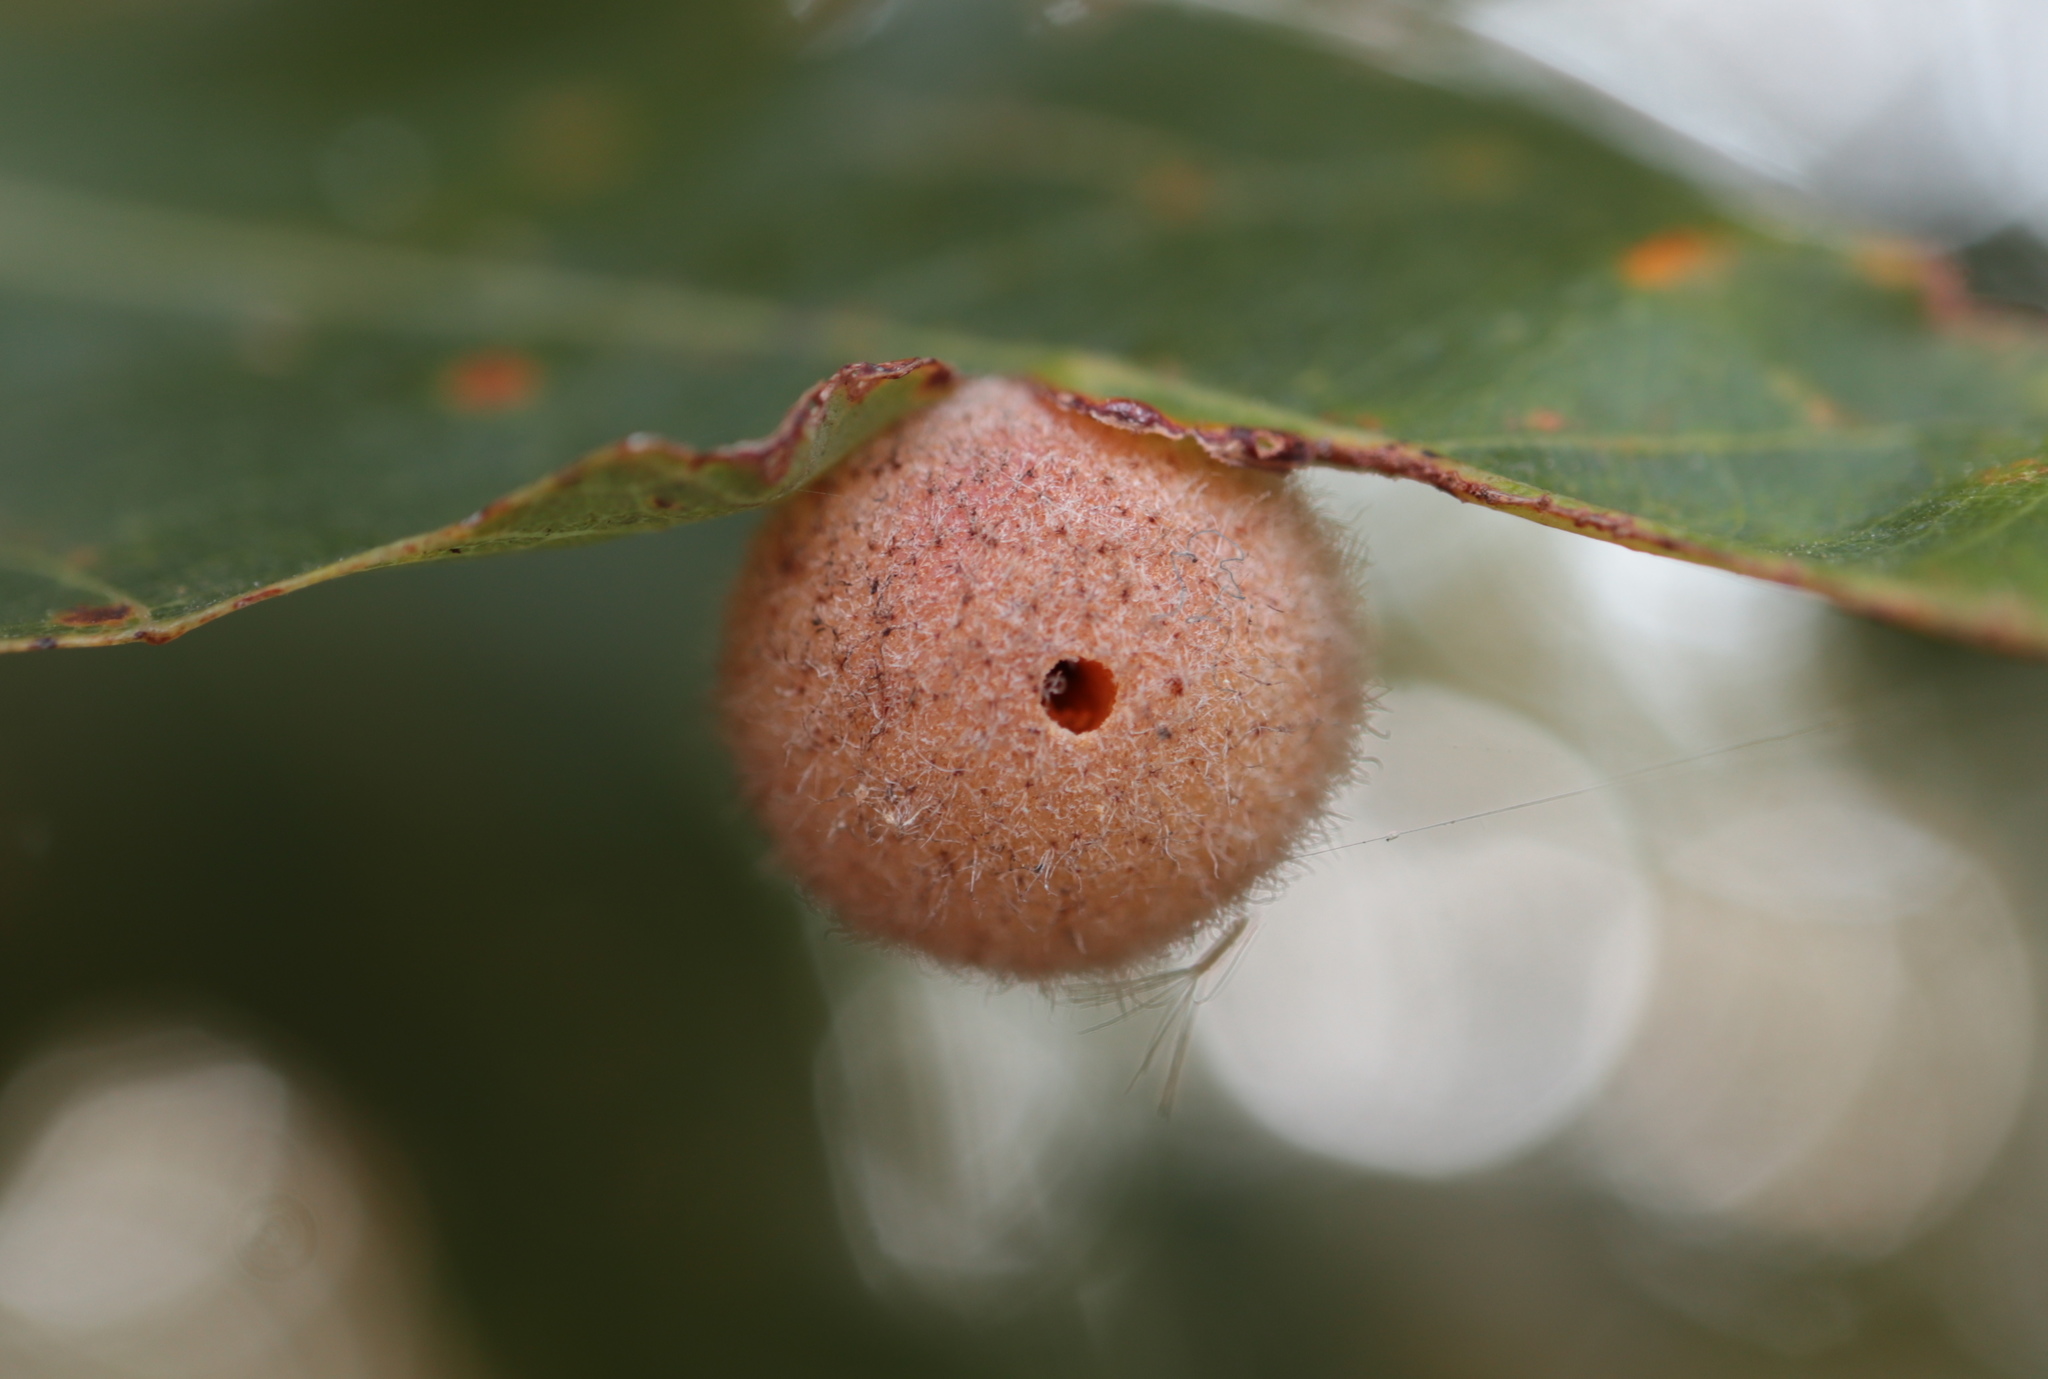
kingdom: Animalia
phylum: Arthropoda
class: Insecta
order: Hymenoptera
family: Cynipidae
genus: Philonix
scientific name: Philonix fulvicollis
